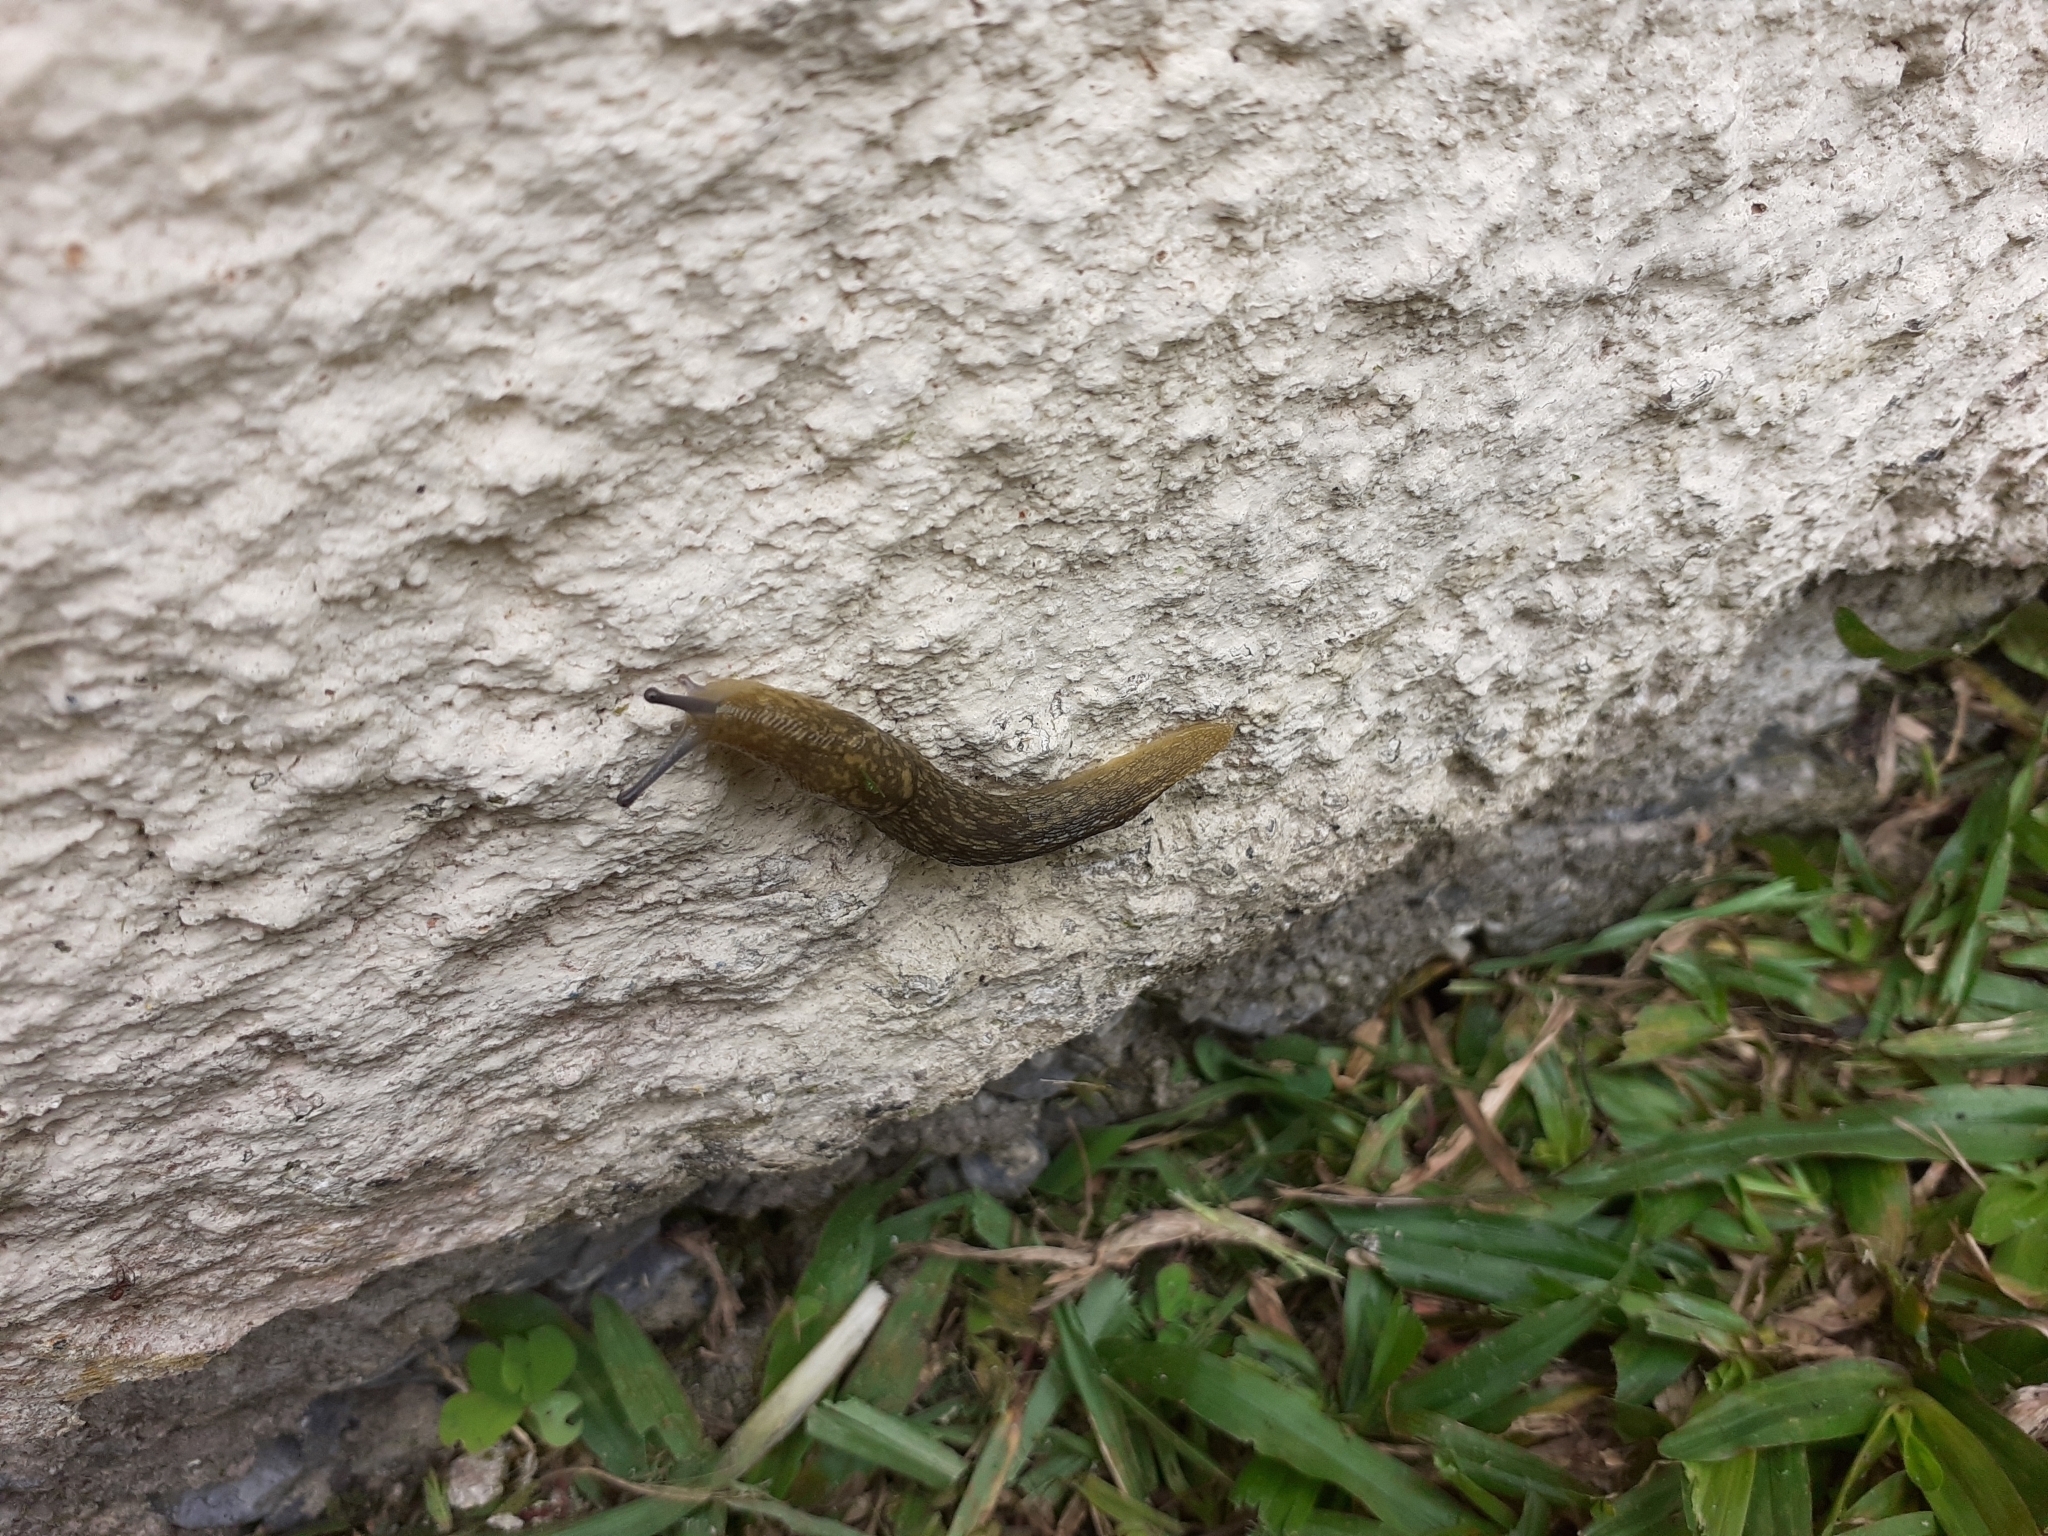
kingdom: Animalia
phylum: Mollusca
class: Gastropoda
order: Stylommatophora
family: Limacidae
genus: Limacus
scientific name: Limacus flavus
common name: Yellow gardenslug
